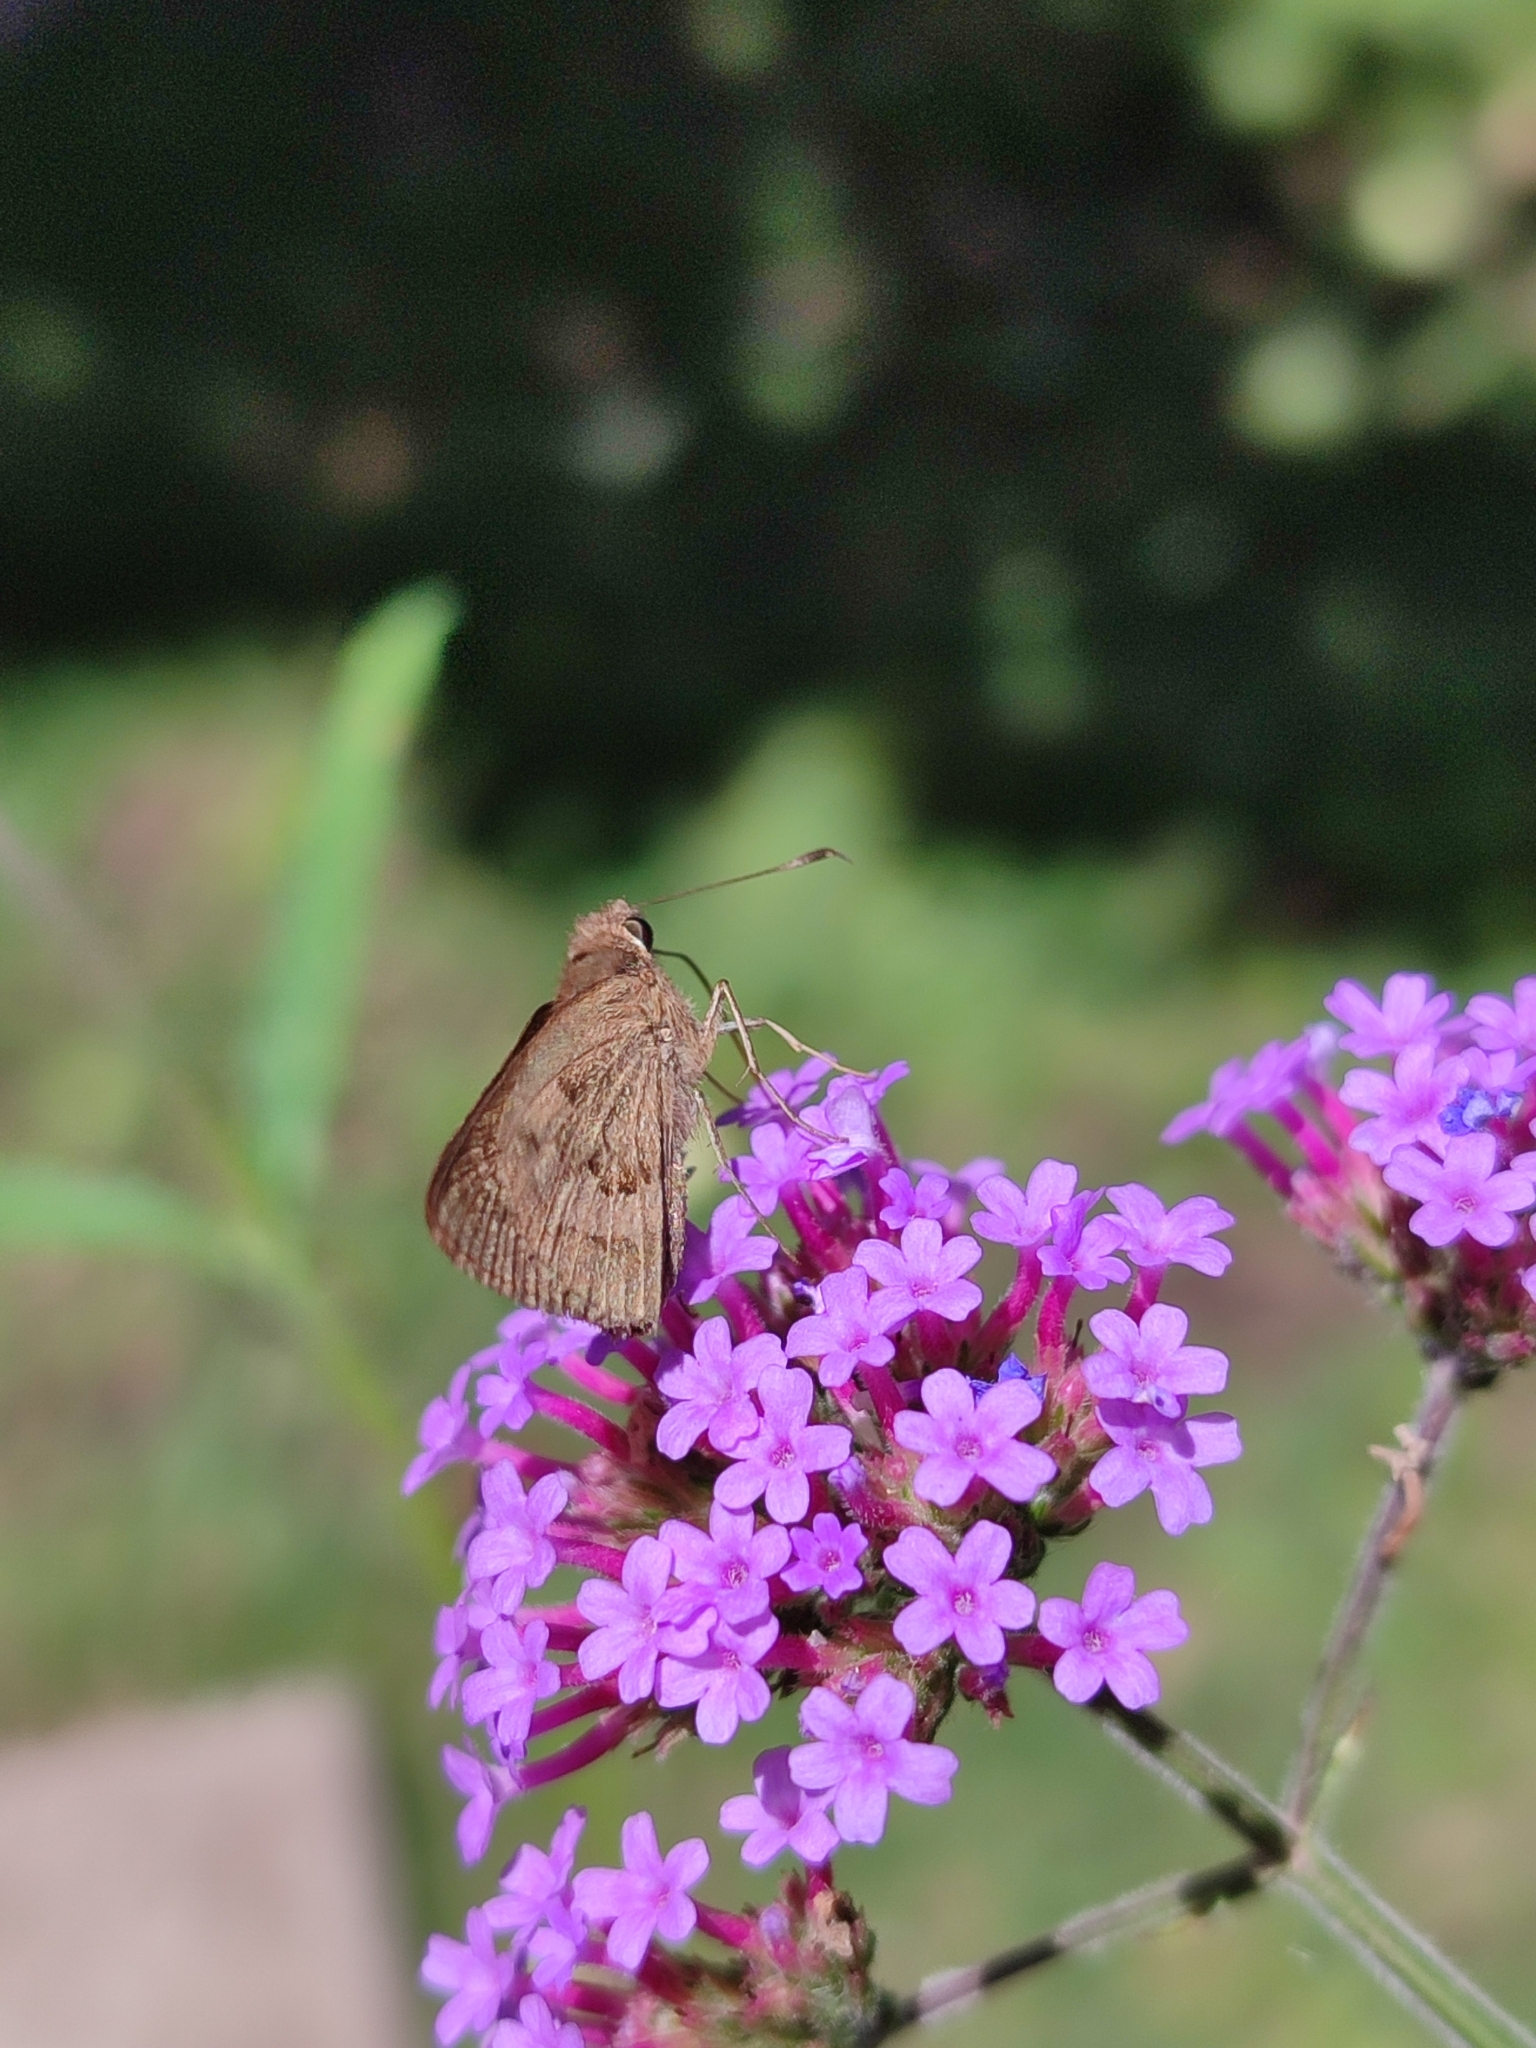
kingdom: Animalia
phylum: Arthropoda
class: Insecta
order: Lepidoptera
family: Hesperiidae
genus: Cymaenes
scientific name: Cymaenes gisca
